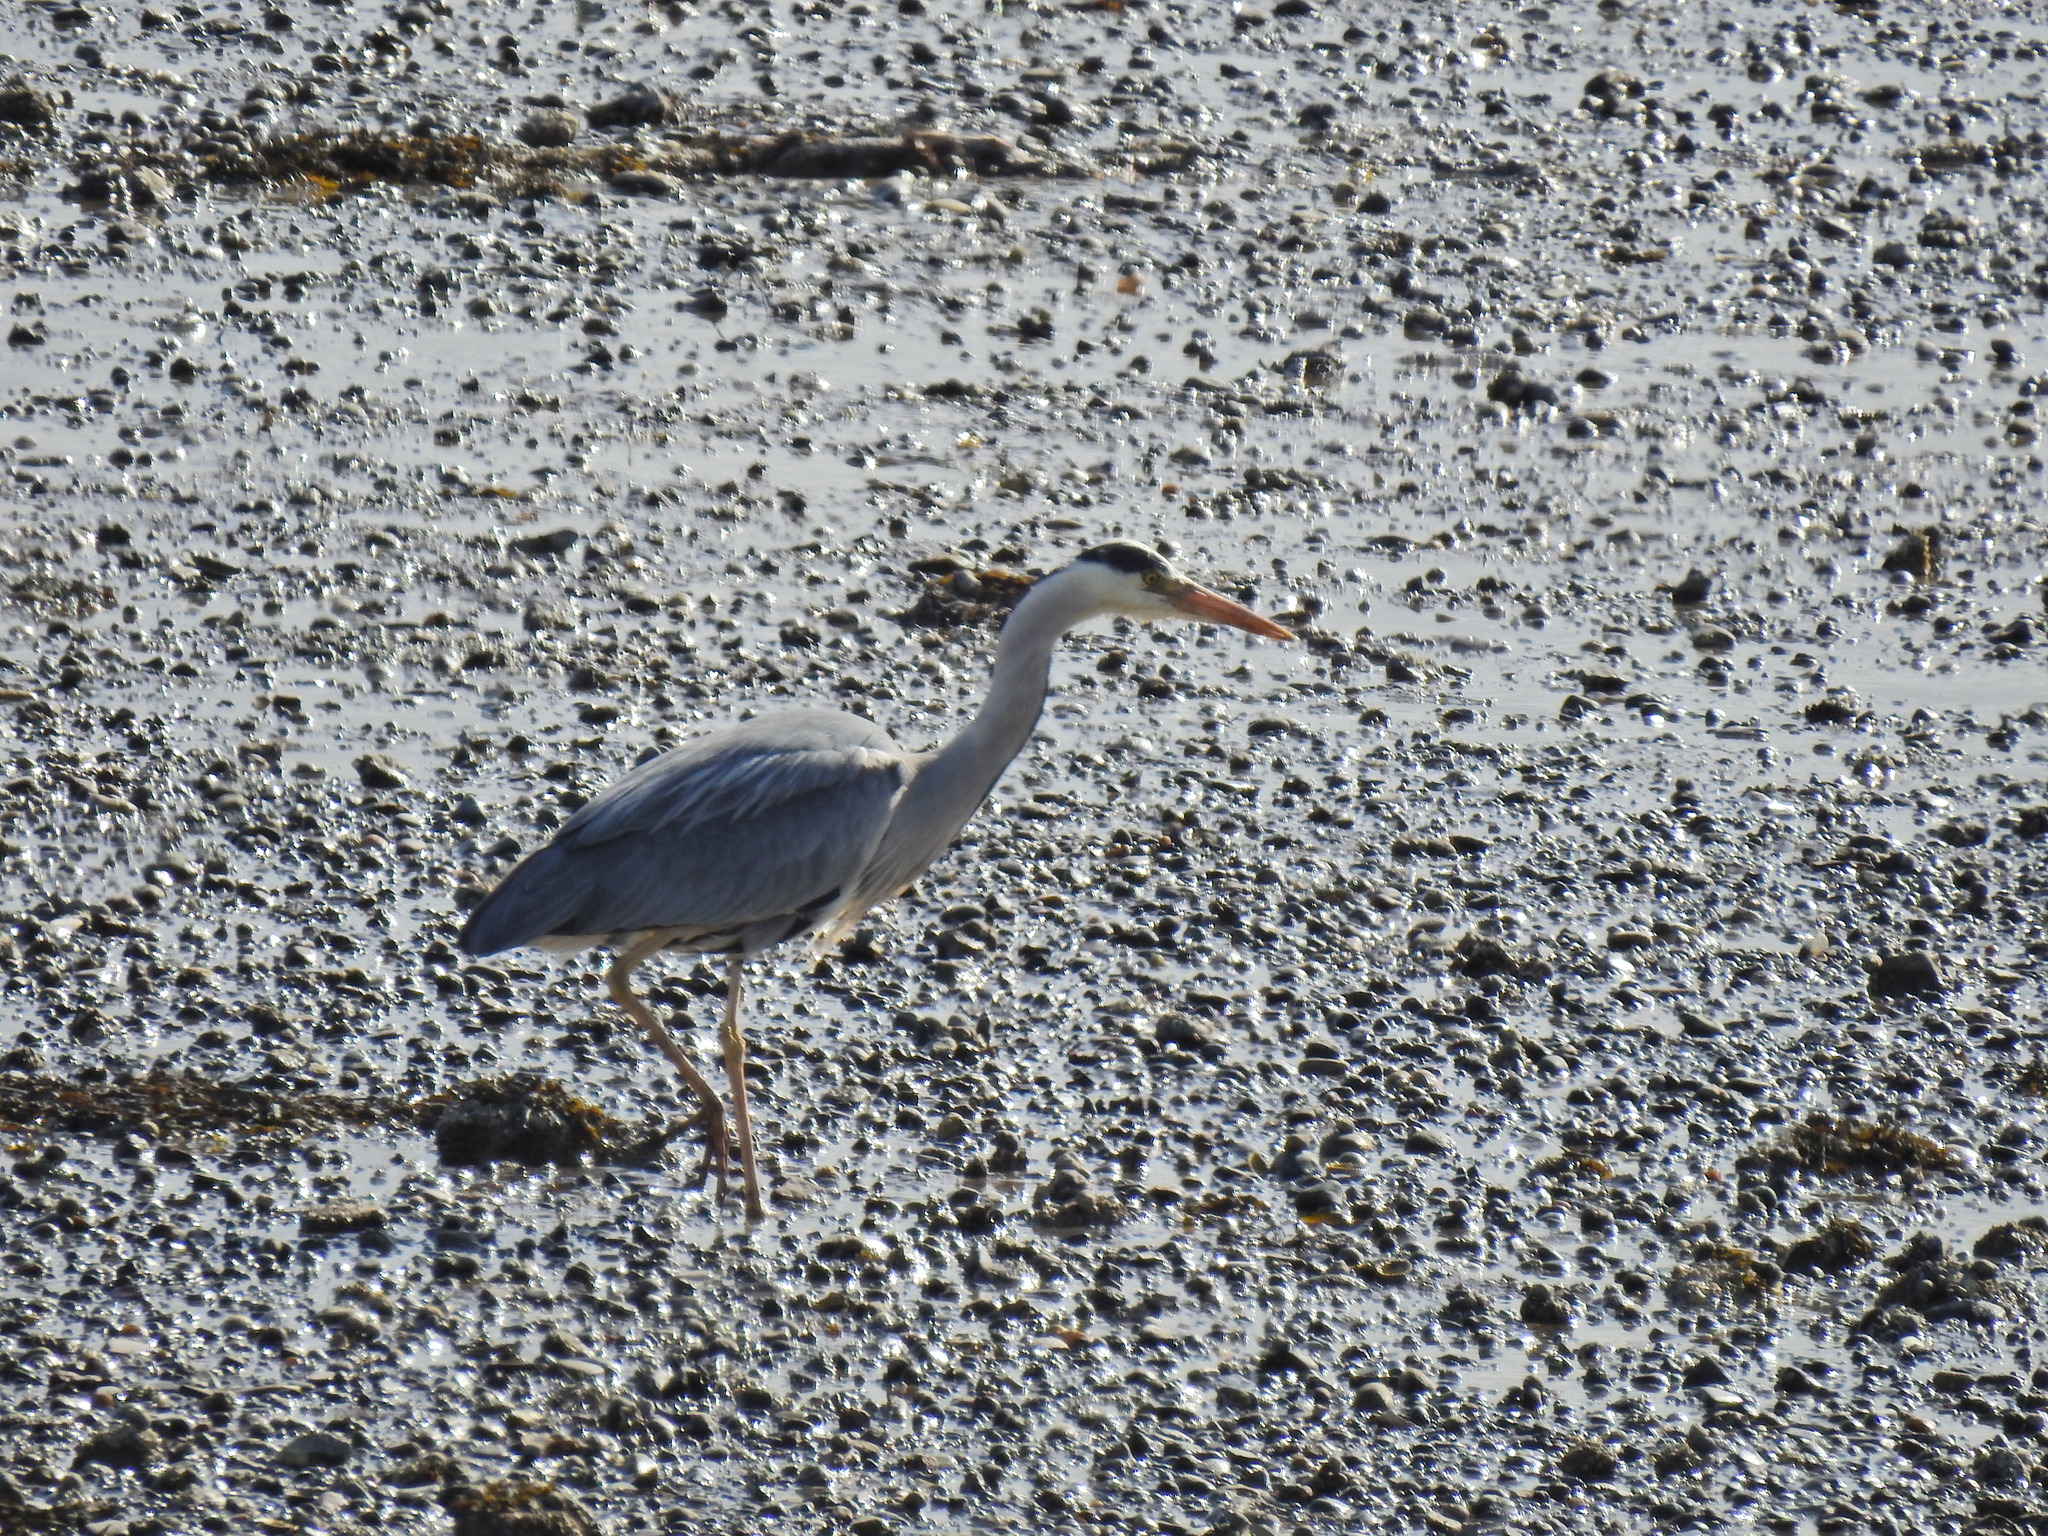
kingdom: Animalia
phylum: Chordata
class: Aves
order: Pelecaniformes
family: Ardeidae
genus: Ardea
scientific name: Ardea cinerea
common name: Grey heron
